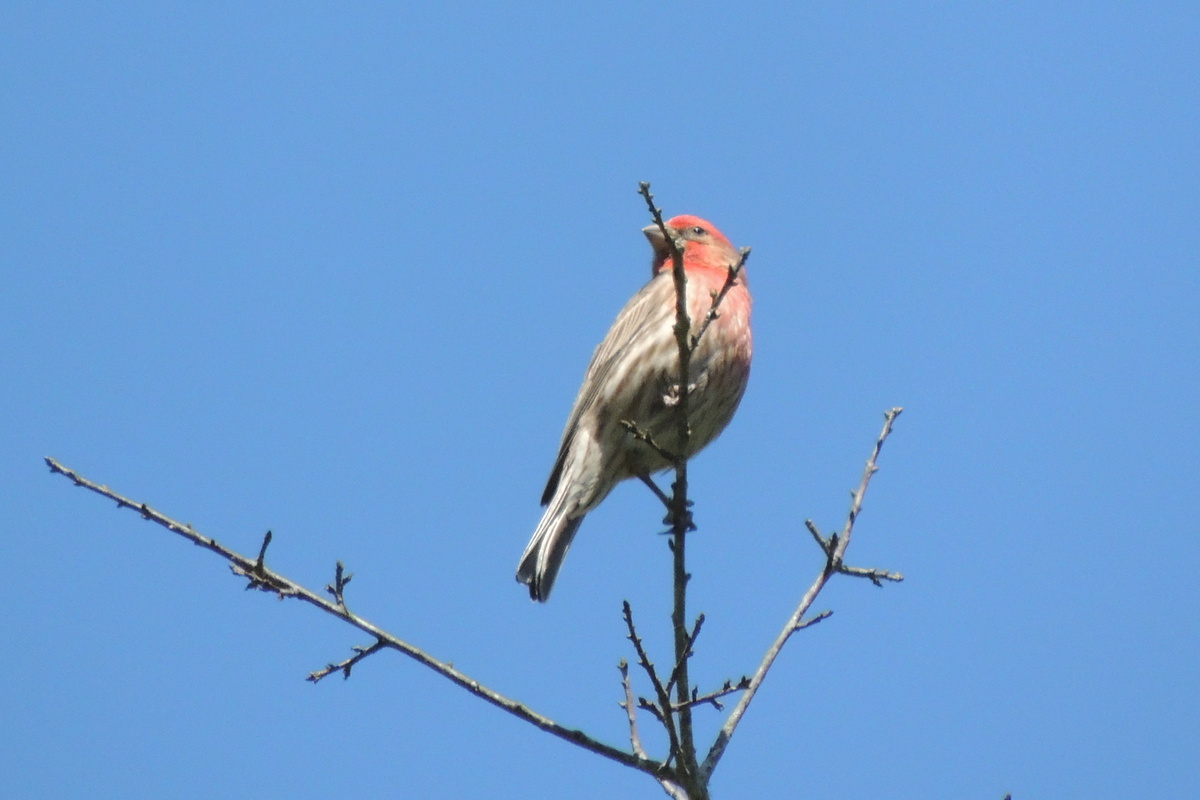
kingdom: Animalia
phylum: Chordata
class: Aves
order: Passeriformes
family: Fringillidae
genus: Haemorhous
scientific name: Haemorhous mexicanus
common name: House finch
